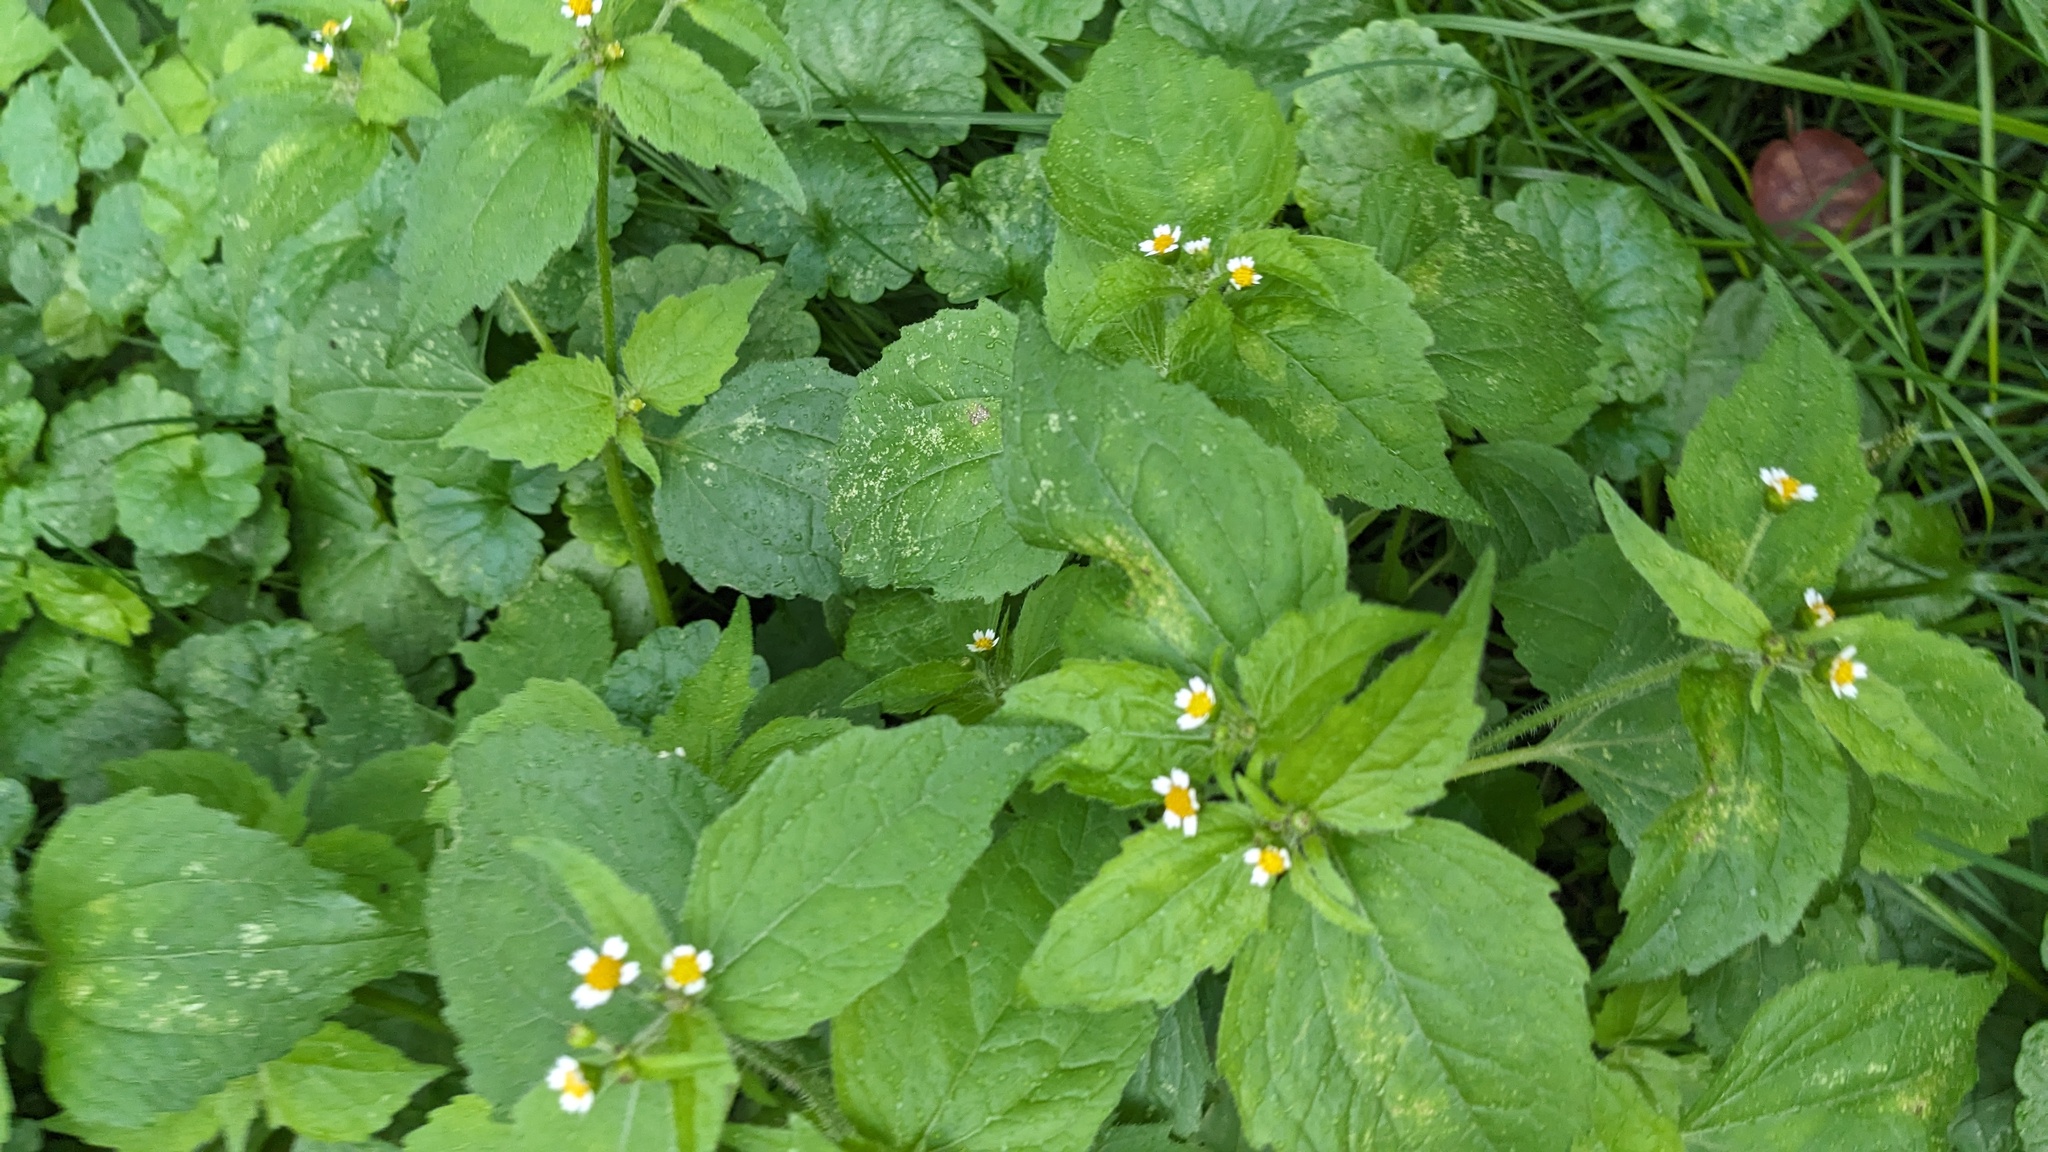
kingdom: Plantae
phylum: Tracheophyta
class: Magnoliopsida
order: Asterales
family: Asteraceae
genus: Galinsoga
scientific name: Galinsoga quadriradiata
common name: Shaggy soldier
